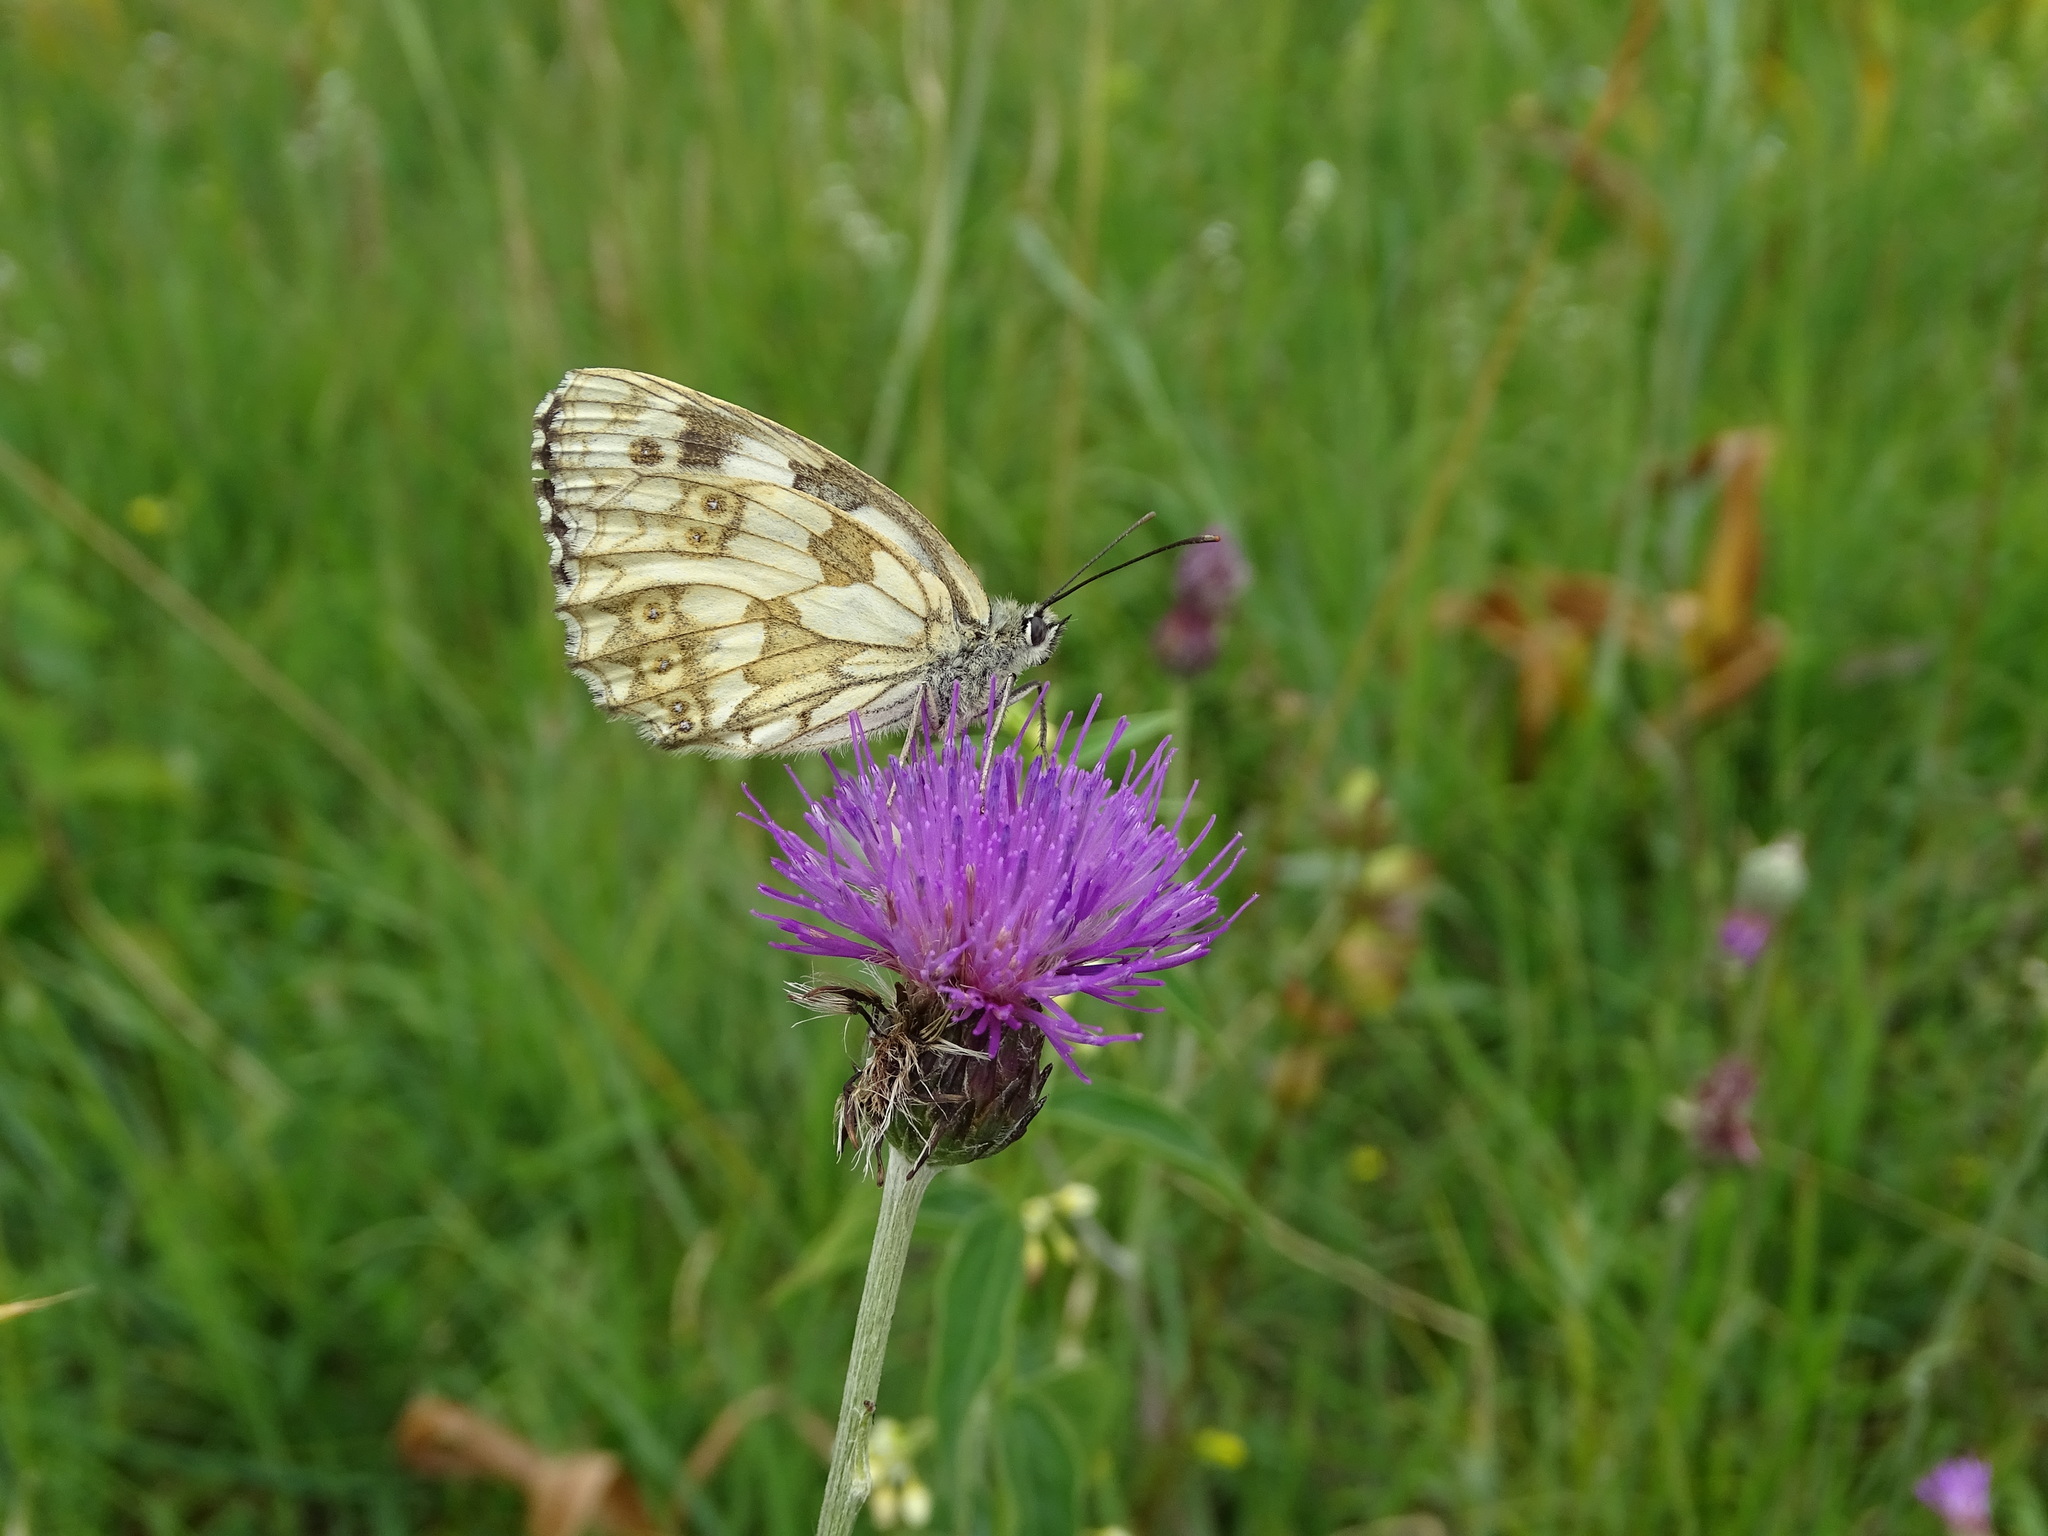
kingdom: Animalia
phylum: Arthropoda
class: Insecta
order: Lepidoptera
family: Nymphalidae
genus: Melanargia
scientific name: Melanargia galathea
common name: Marbled white
